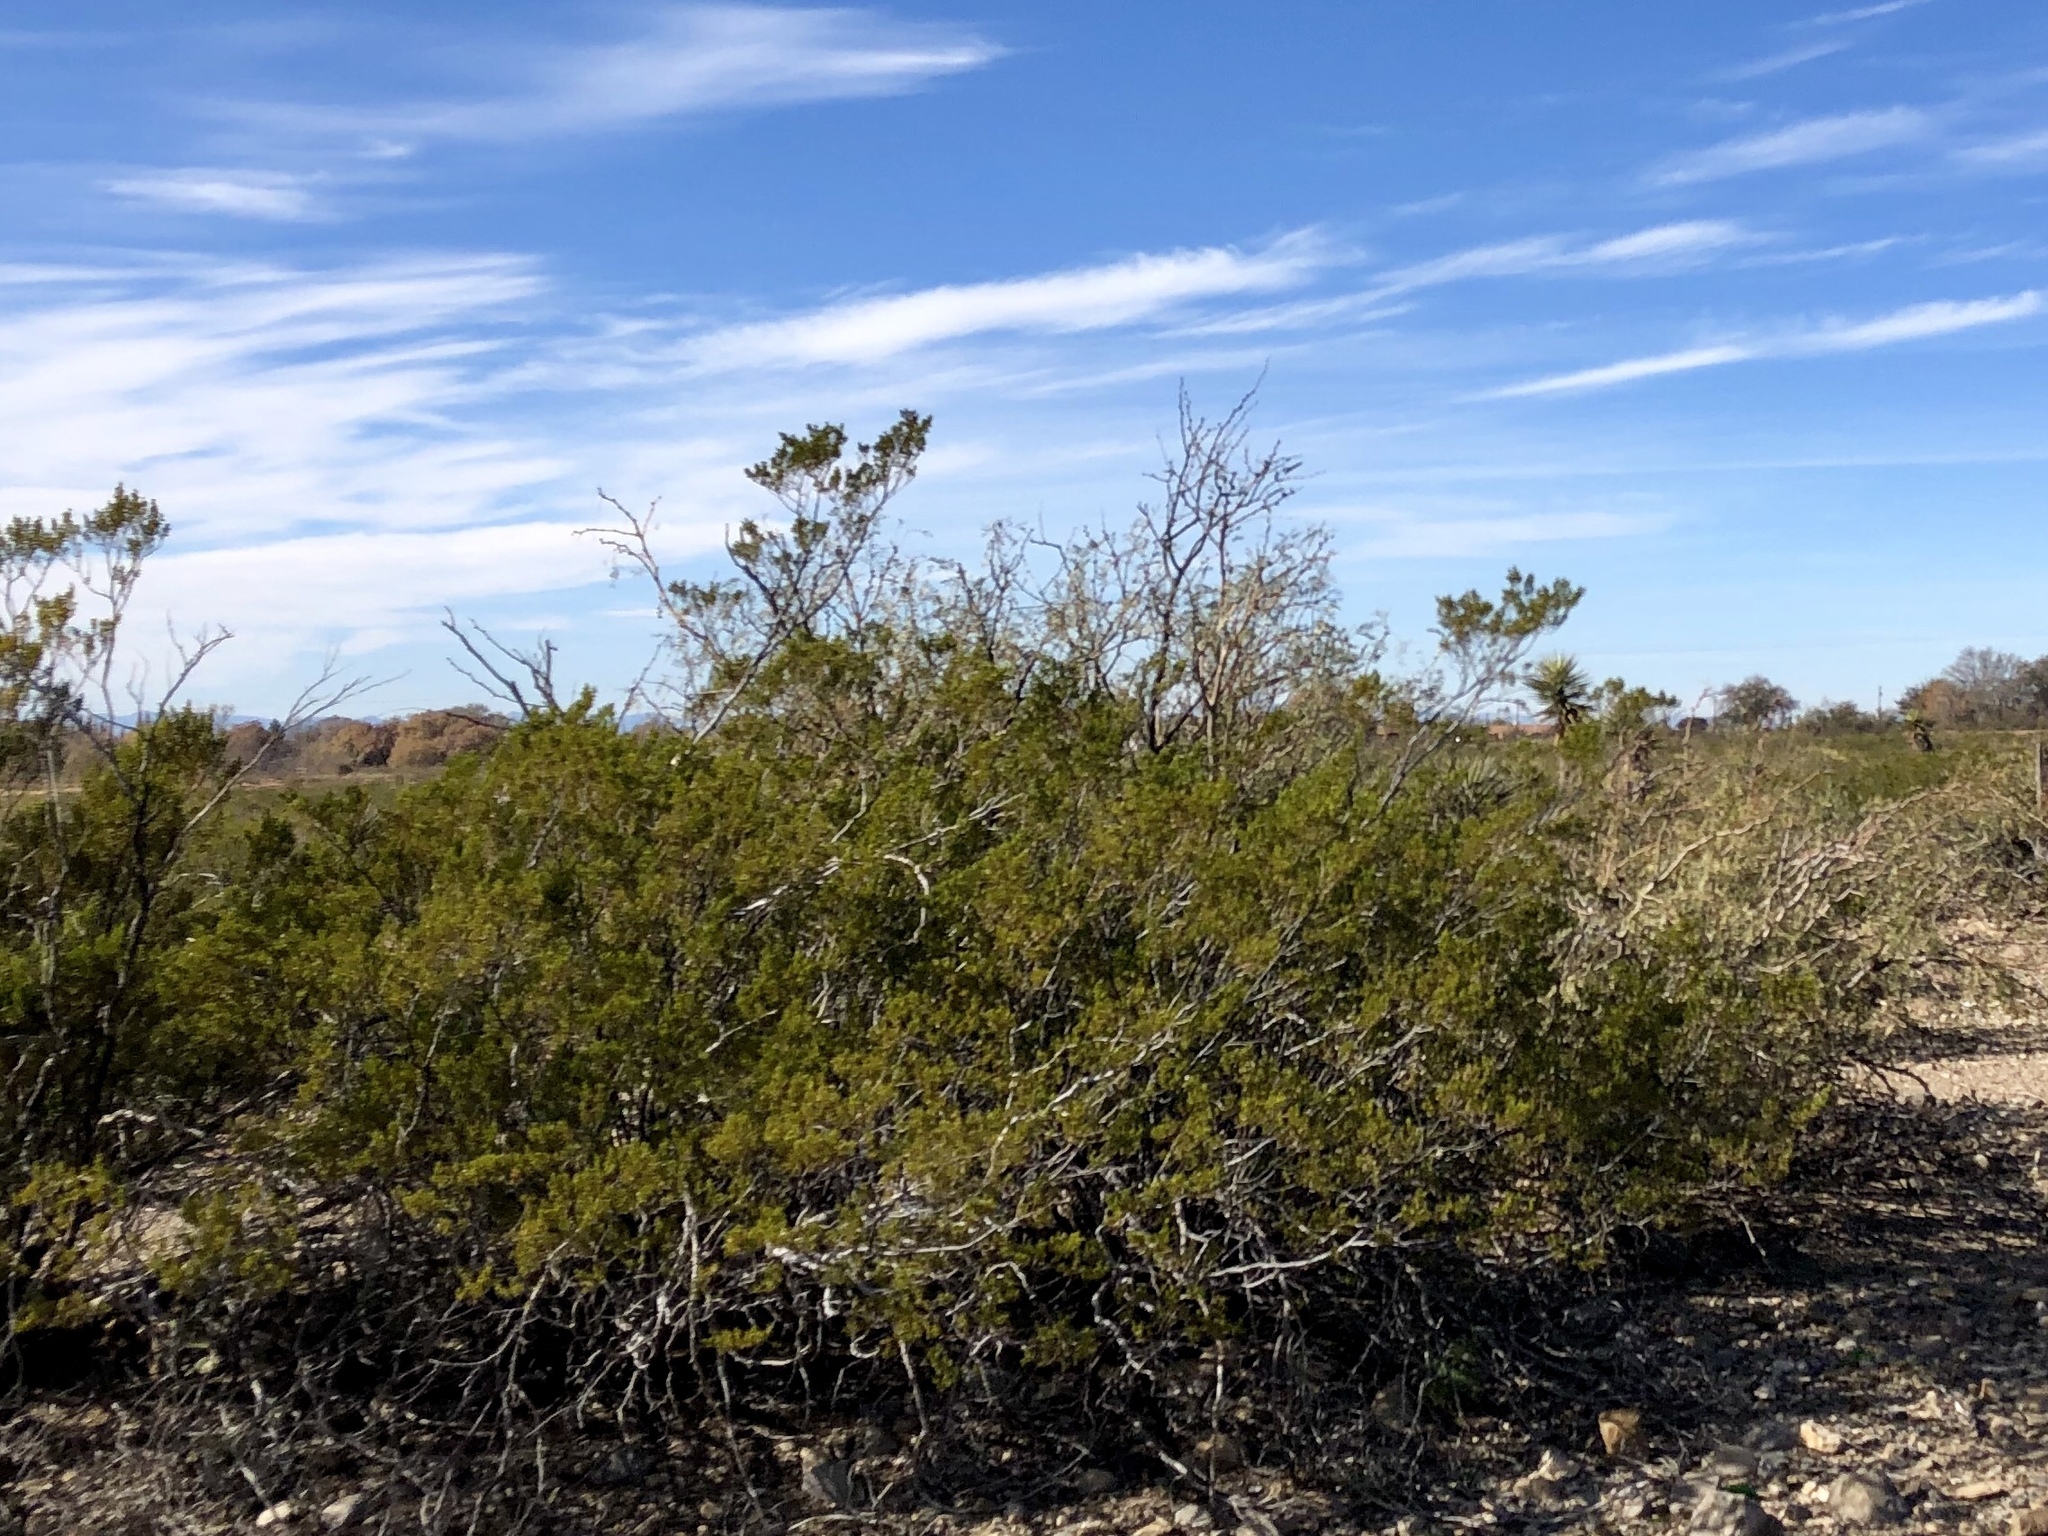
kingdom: Plantae
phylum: Tracheophyta
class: Magnoliopsida
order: Zygophyllales
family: Zygophyllaceae
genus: Larrea
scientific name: Larrea tridentata
